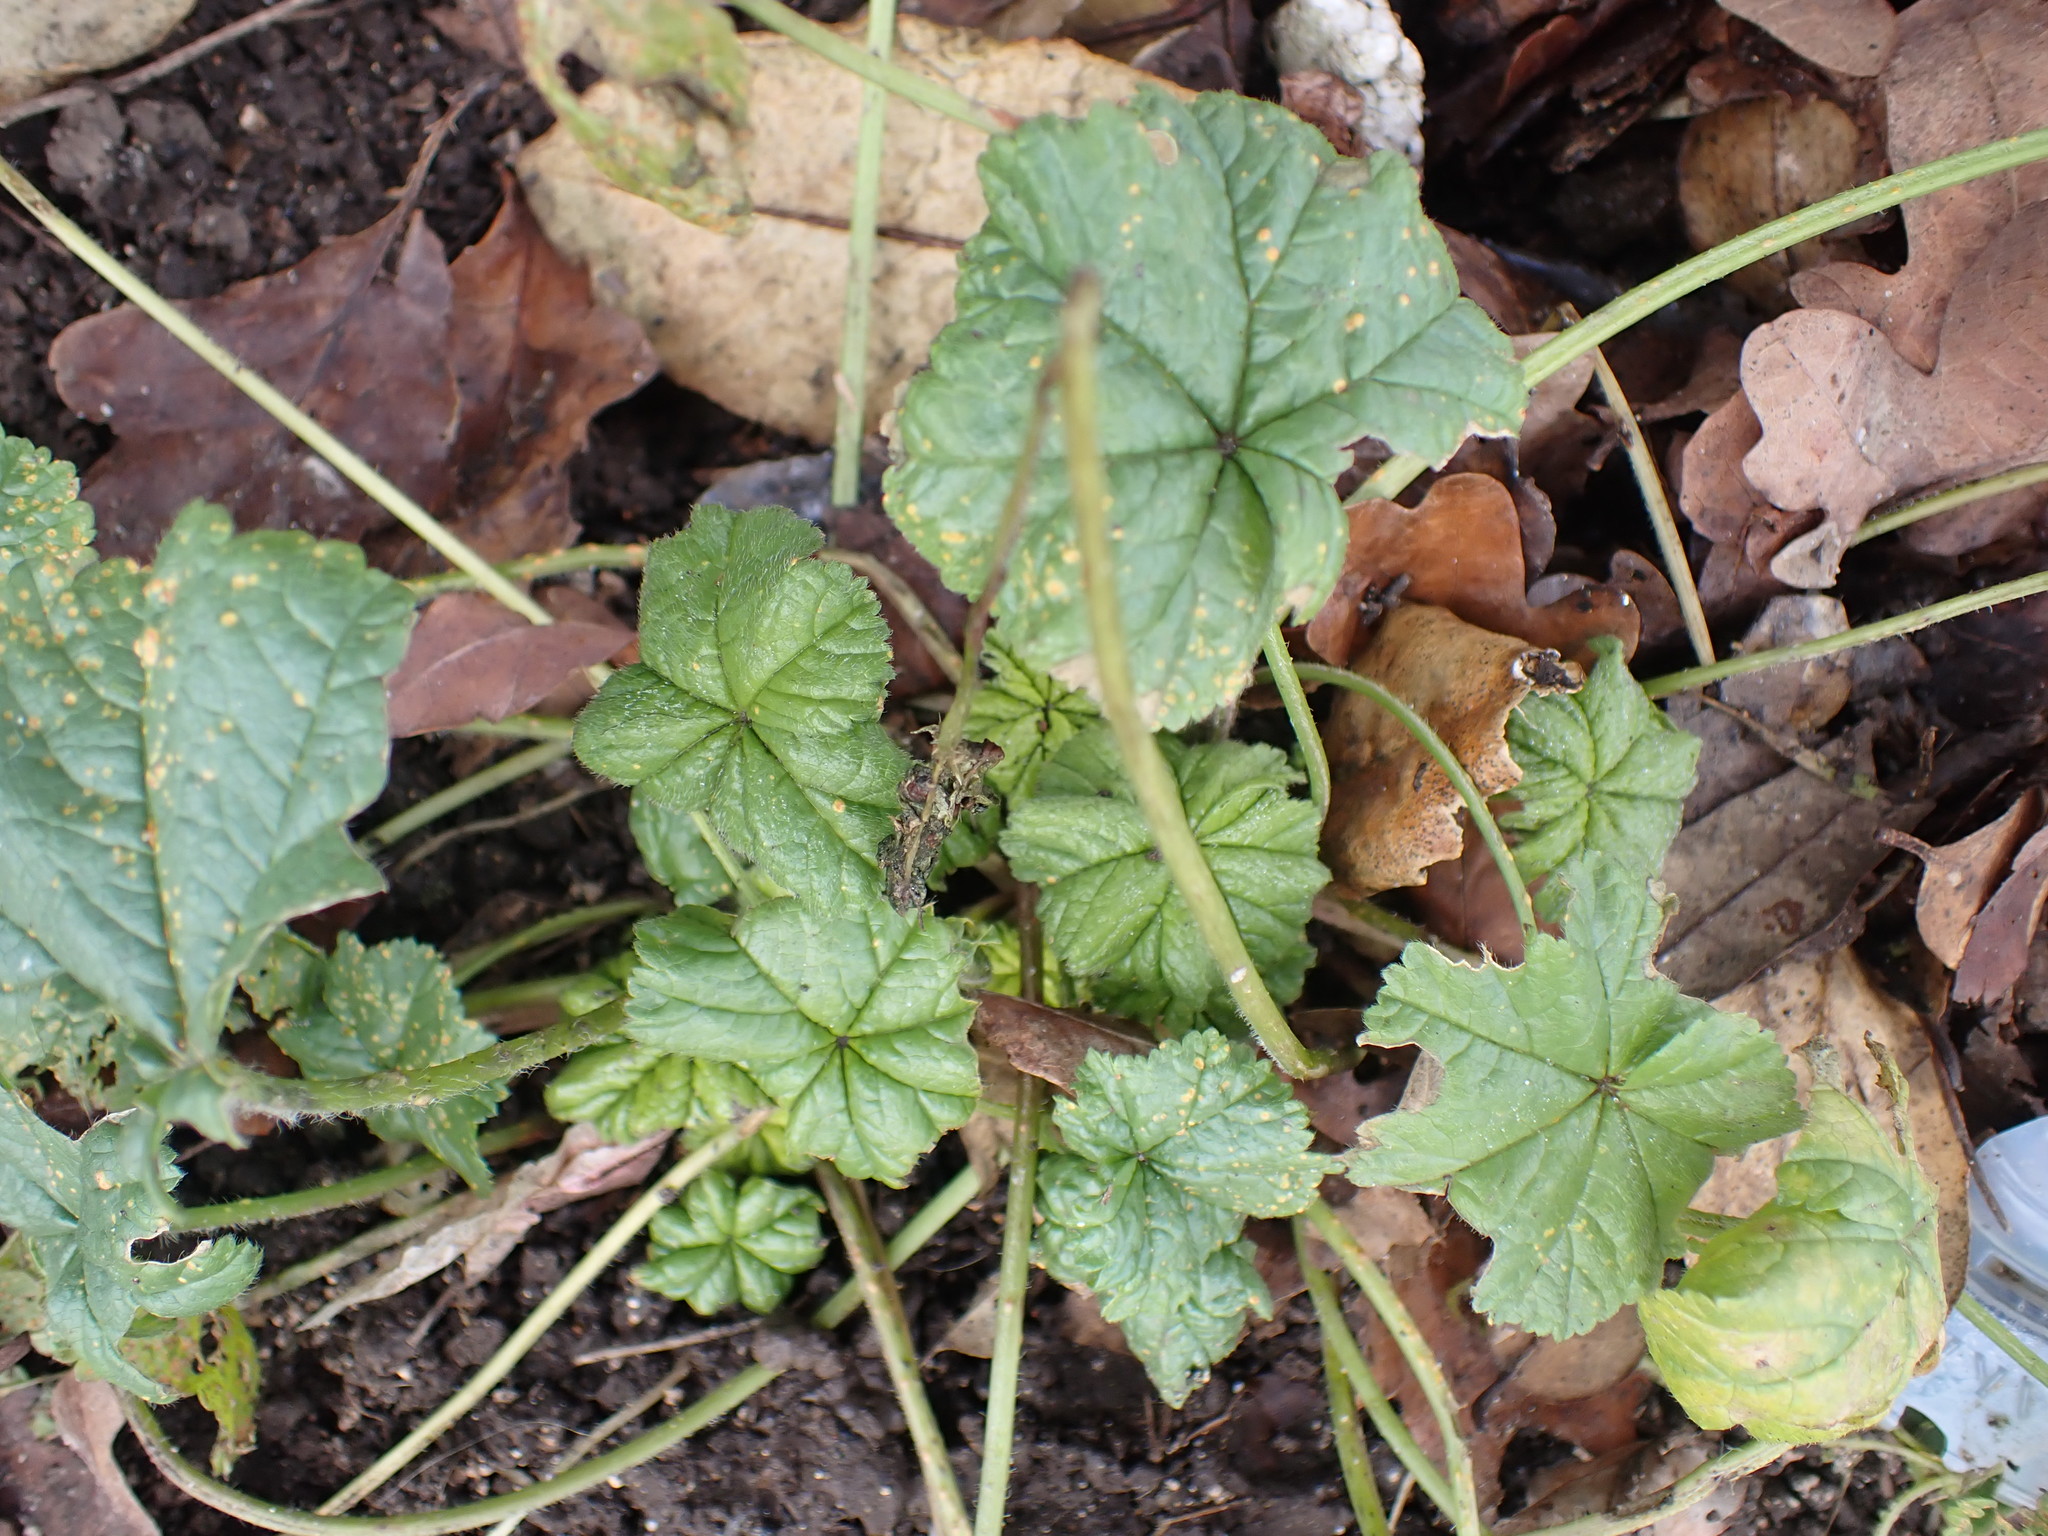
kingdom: Plantae
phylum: Tracheophyta
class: Magnoliopsida
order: Malvales
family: Malvaceae
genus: Malva
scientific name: Malva sylvestris
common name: Common mallow
